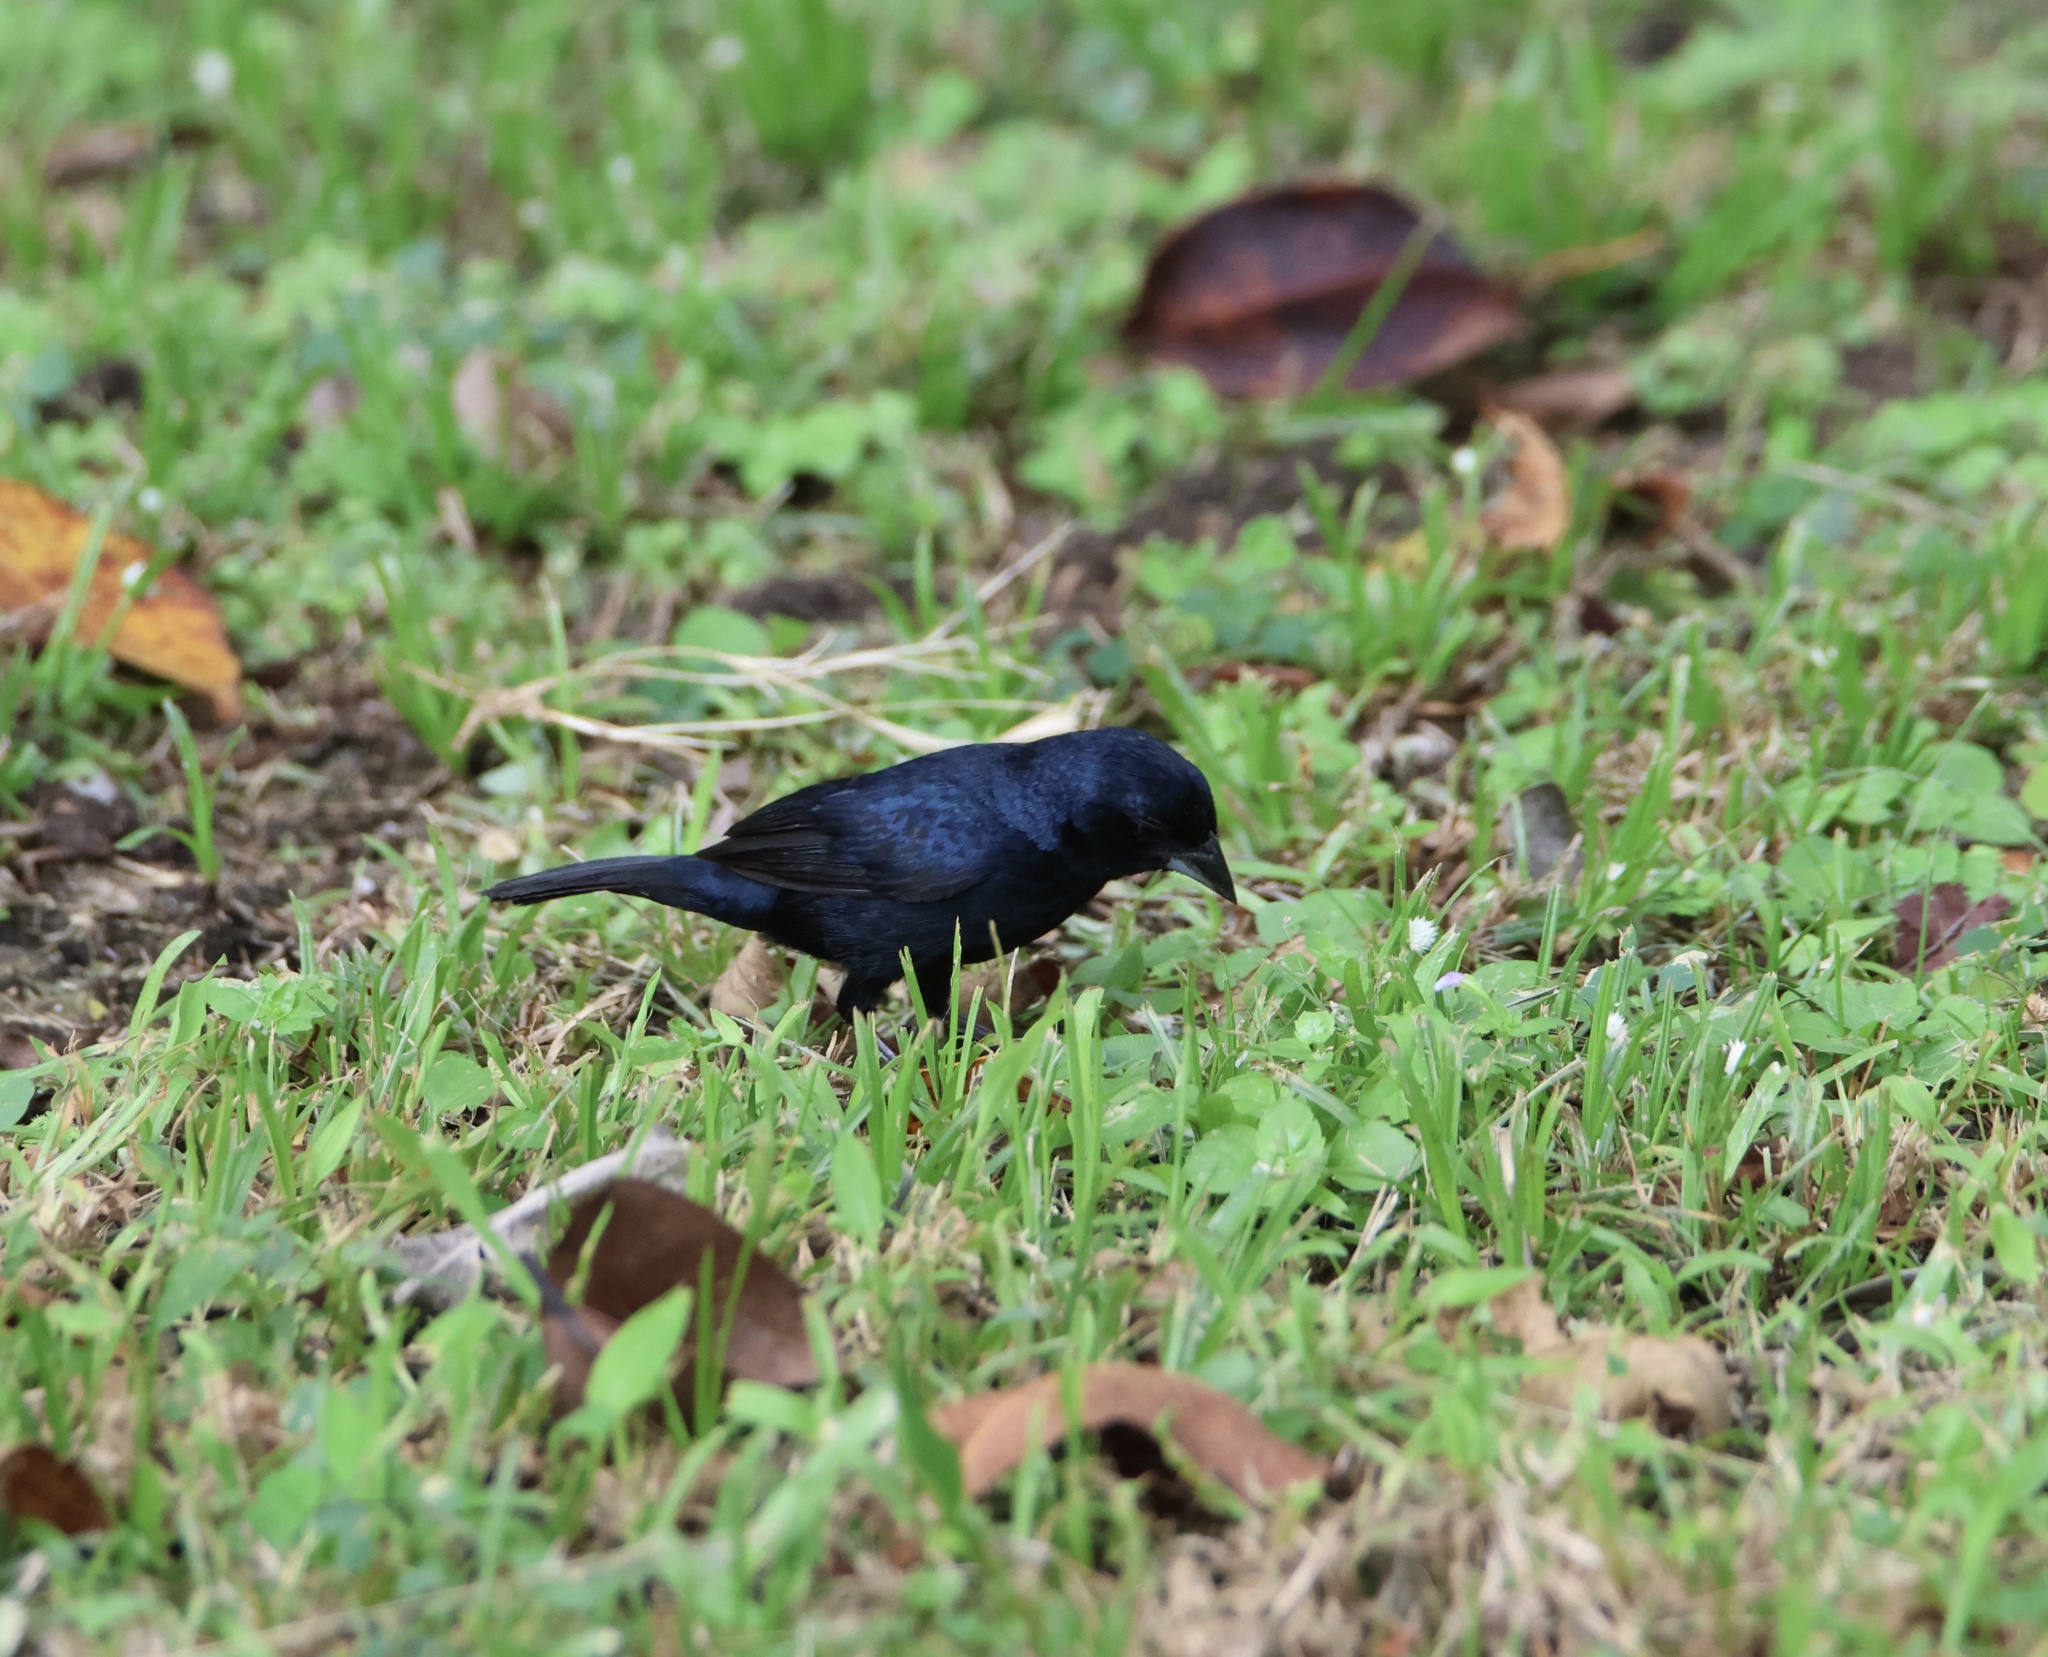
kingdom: Animalia
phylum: Chordata
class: Aves
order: Passeriformes
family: Thraupidae
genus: Volatinia
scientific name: Volatinia jacarina
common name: Blue-black grassquit
